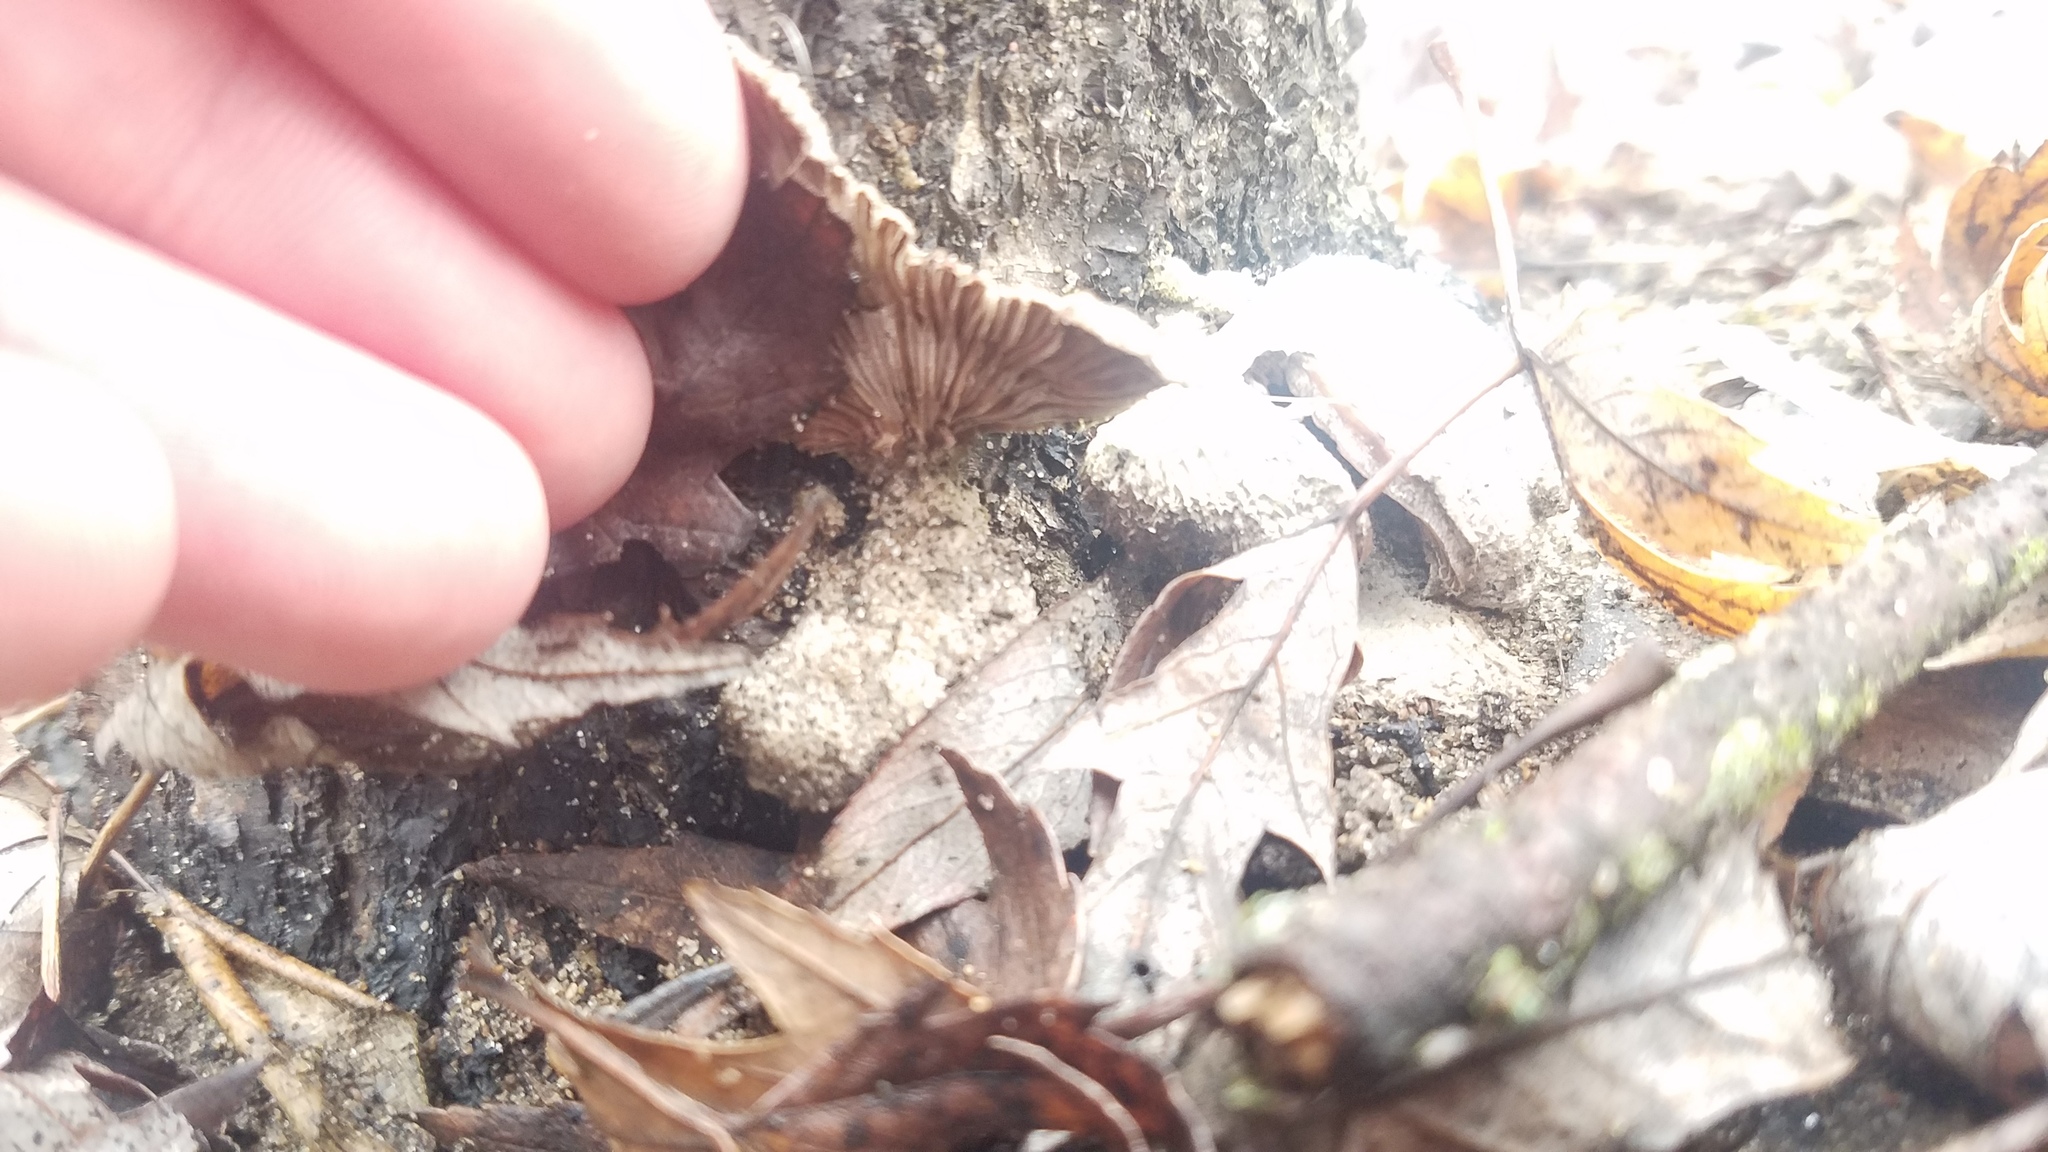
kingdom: Fungi
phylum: Basidiomycota
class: Agaricomycetes
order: Agaricales
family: Schizophyllaceae
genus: Schizophyllum
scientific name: Schizophyllum commune
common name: Common porecrust
